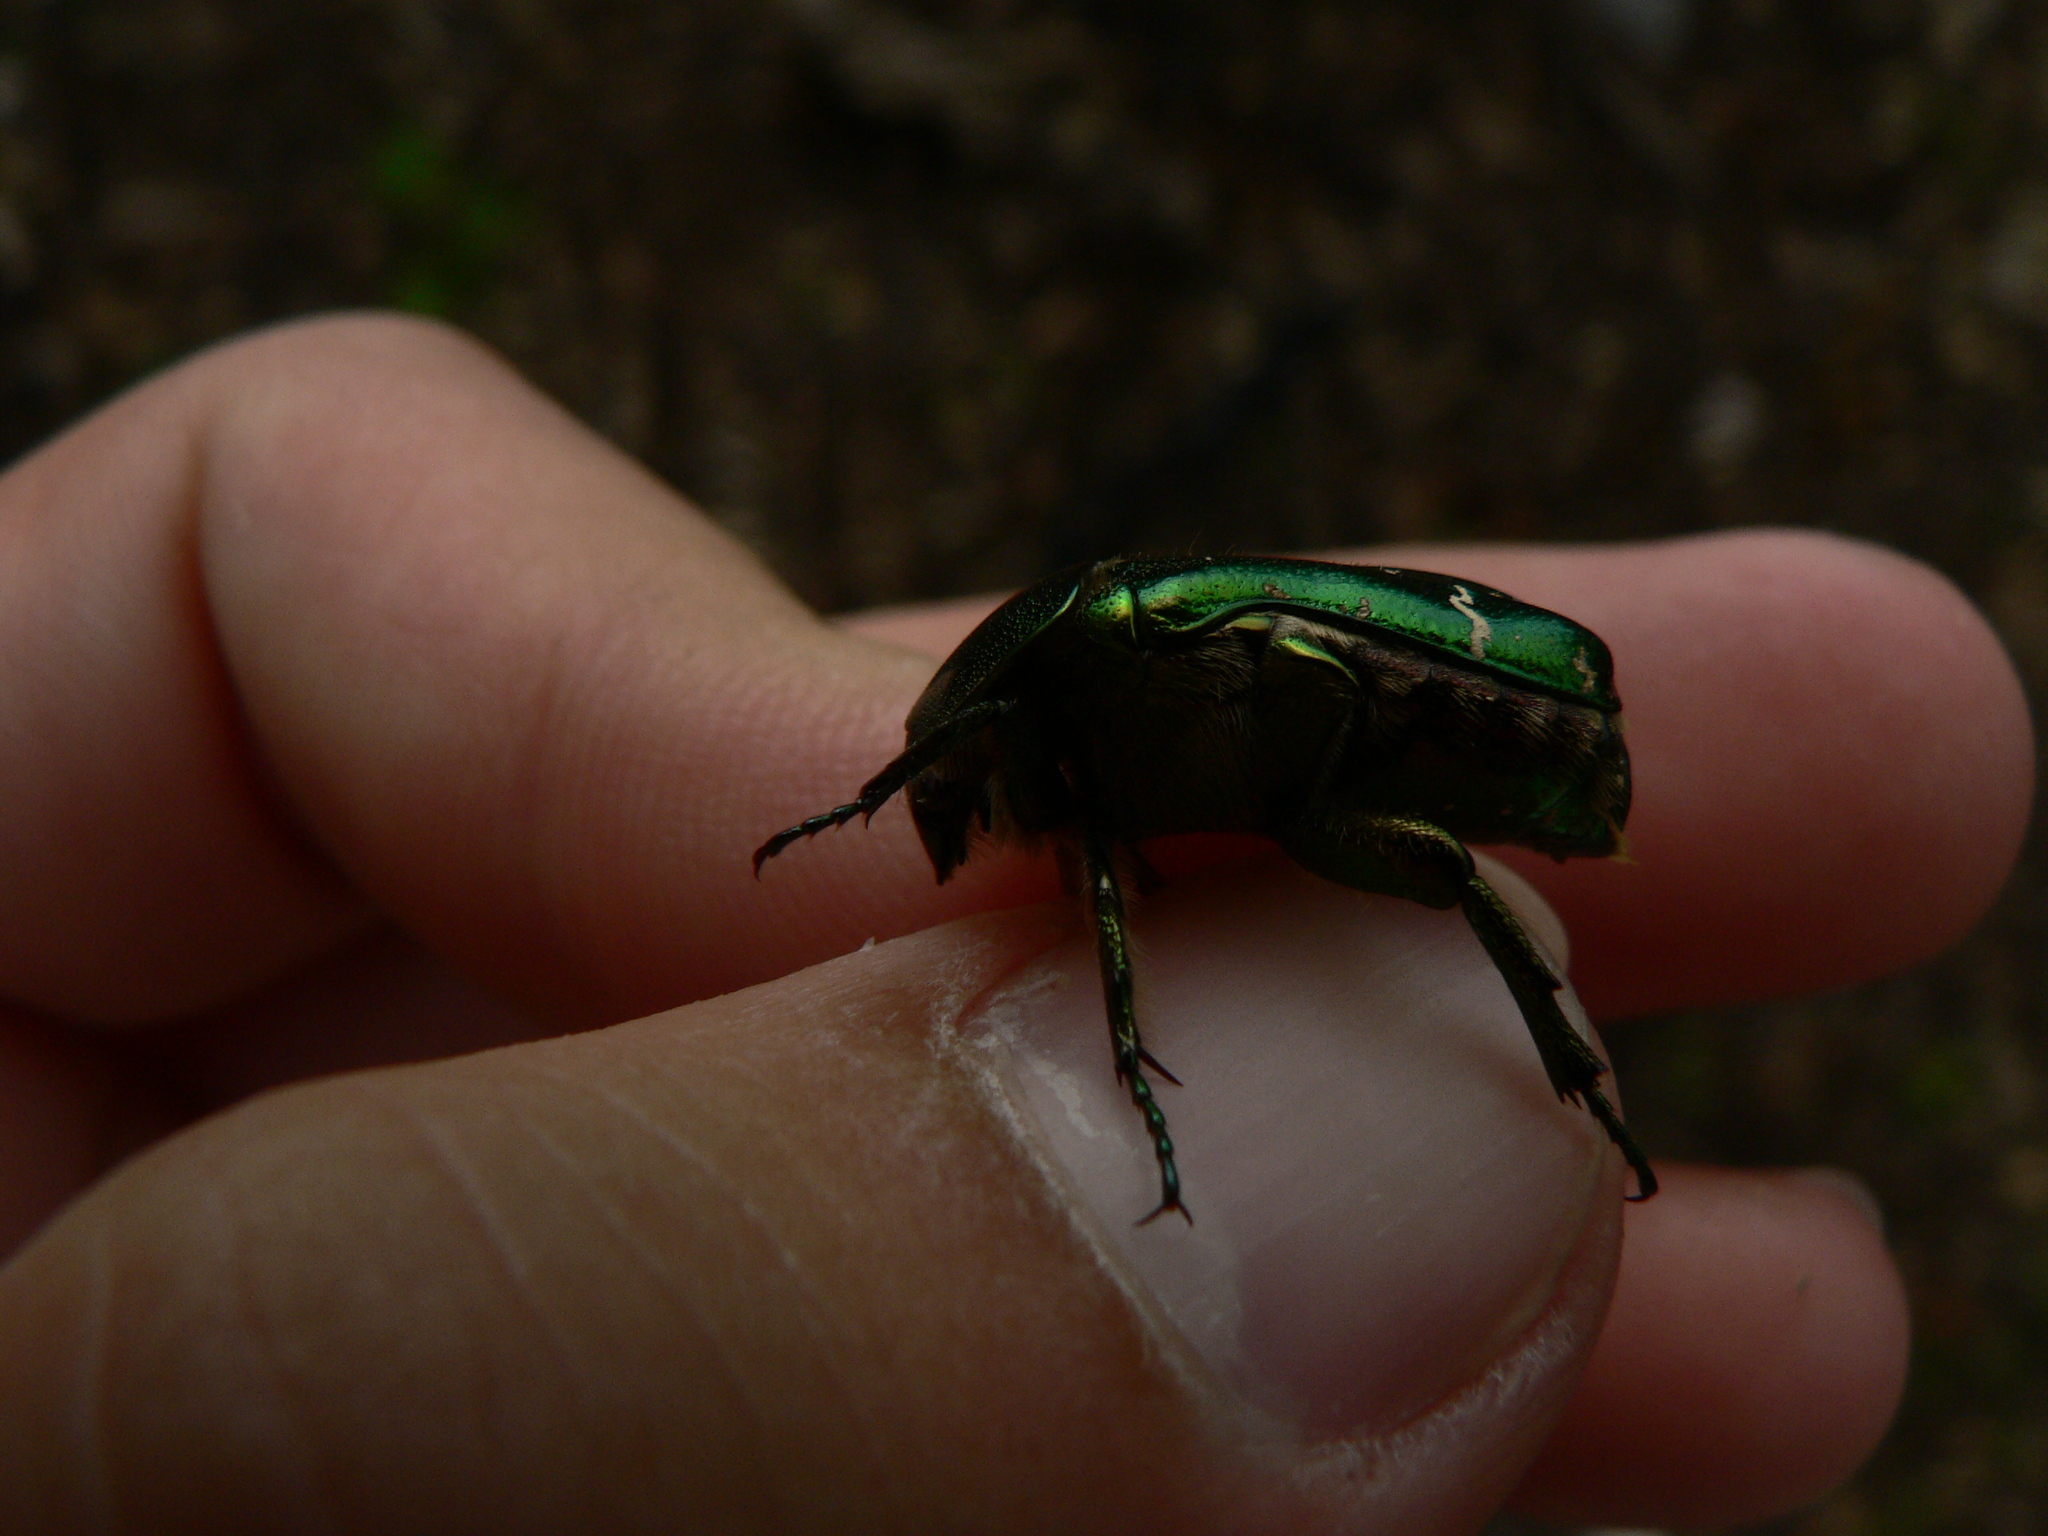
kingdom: Animalia
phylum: Arthropoda
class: Insecta
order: Coleoptera
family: Scarabaeidae
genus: Cetonia
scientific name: Cetonia aurata
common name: Rose chafer
